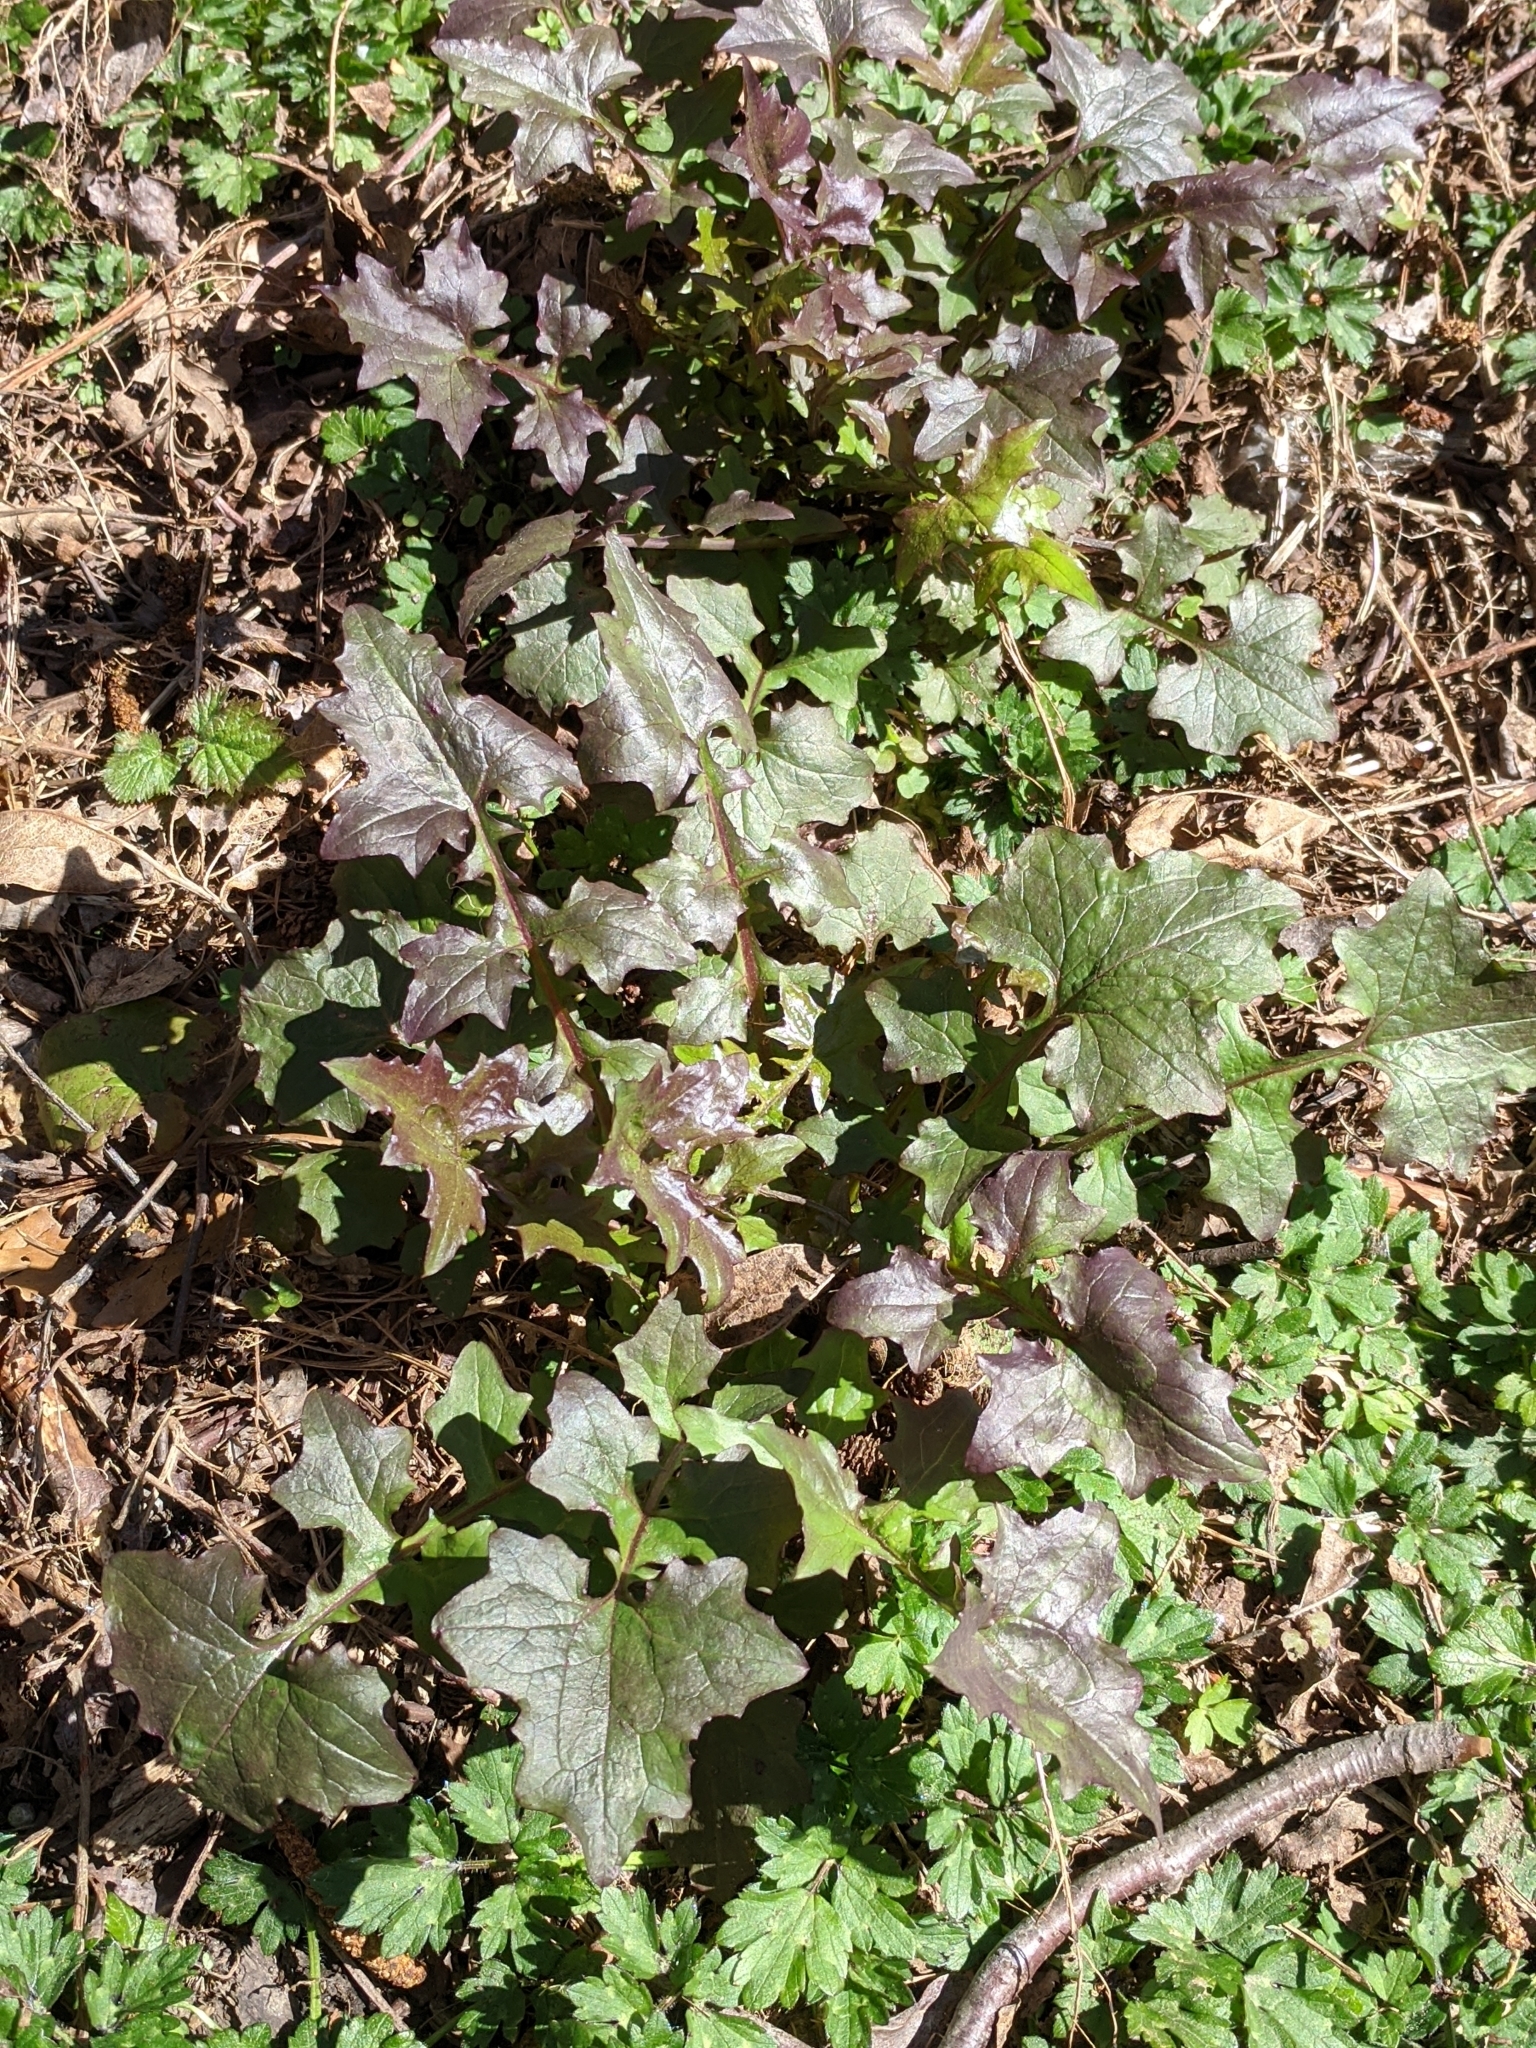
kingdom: Plantae
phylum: Tracheophyta
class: Magnoliopsida
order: Asterales
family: Asteraceae
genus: Mycelis
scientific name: Mycelis muralis
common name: Wall lettuce
